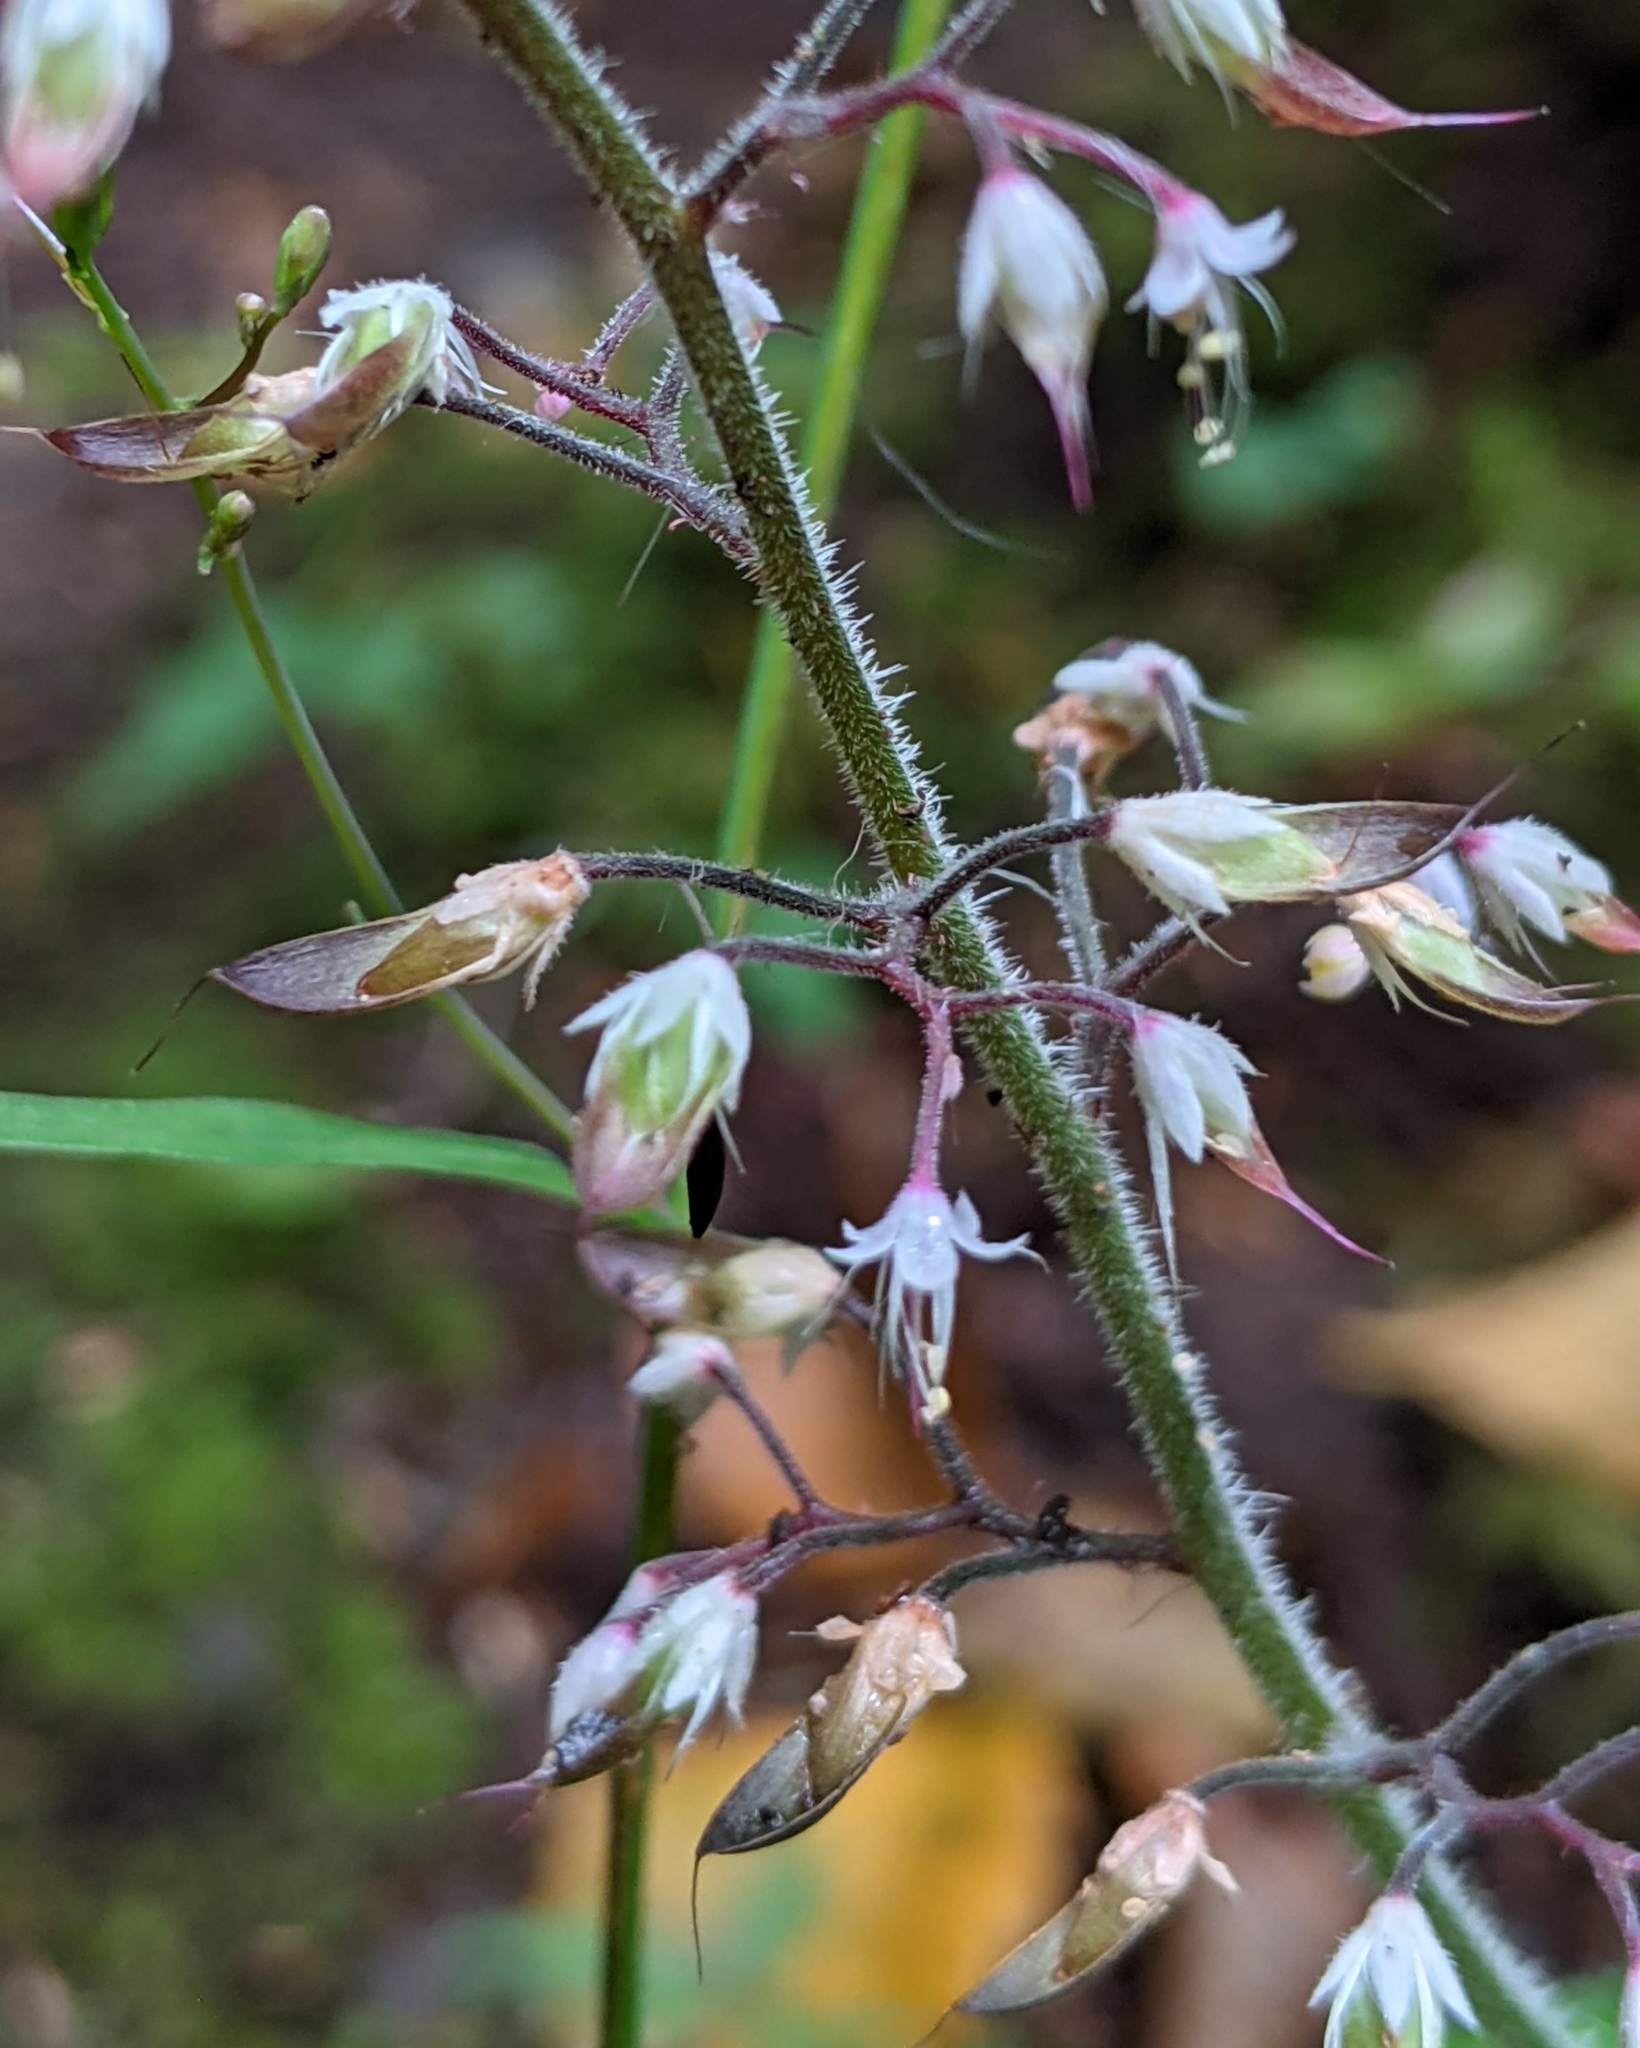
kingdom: Plantae
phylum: Tracheophyta
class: Magnoliopsida
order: Saxifragales
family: Saxifragaceae
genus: Tiarella
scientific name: Tiarella trifoliata
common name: Sugar-scoop
